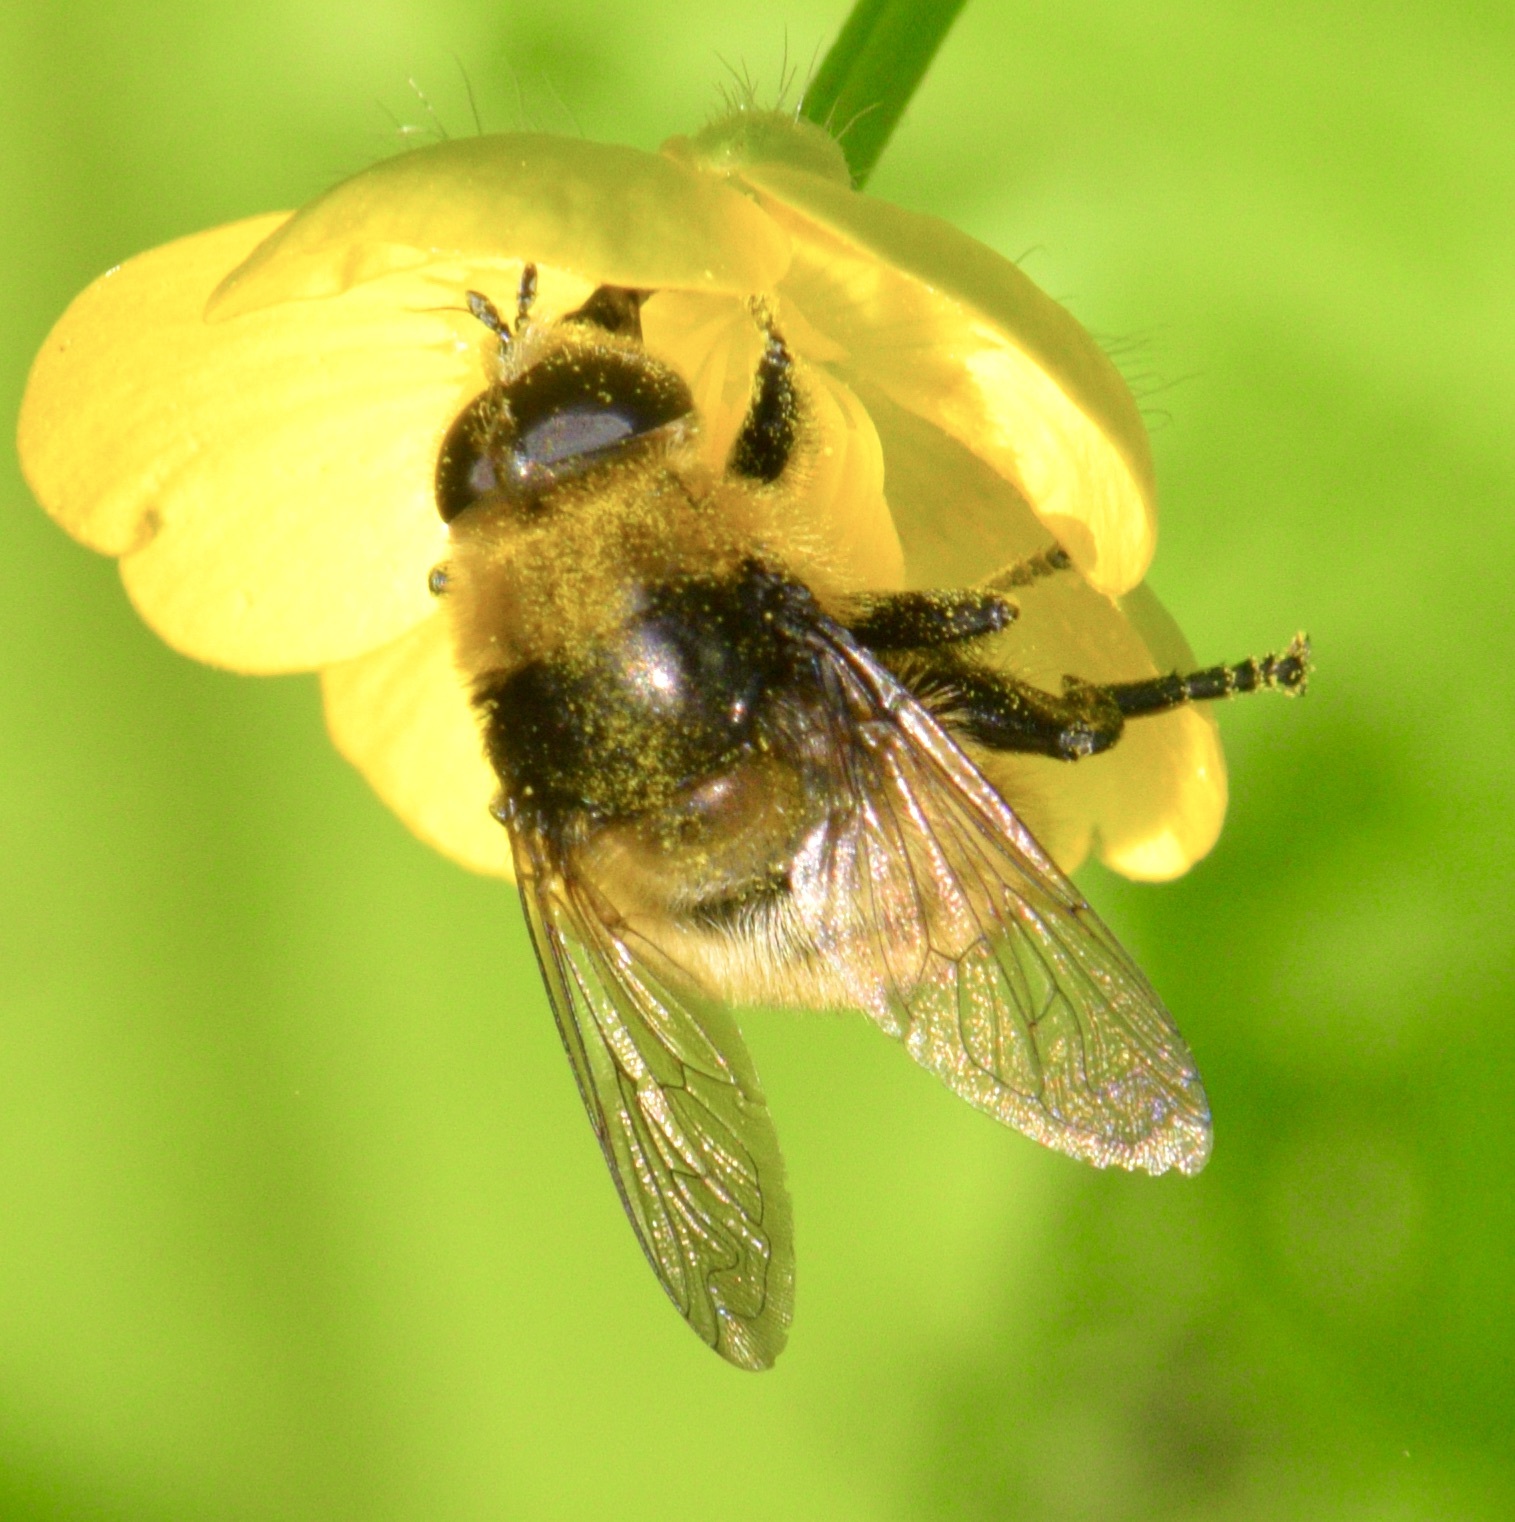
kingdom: Animalia
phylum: Arthropoda
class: Insecta
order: Diptera
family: Syrphidae
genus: Merodon
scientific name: Merodon equestris
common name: Greater bulb-fly
